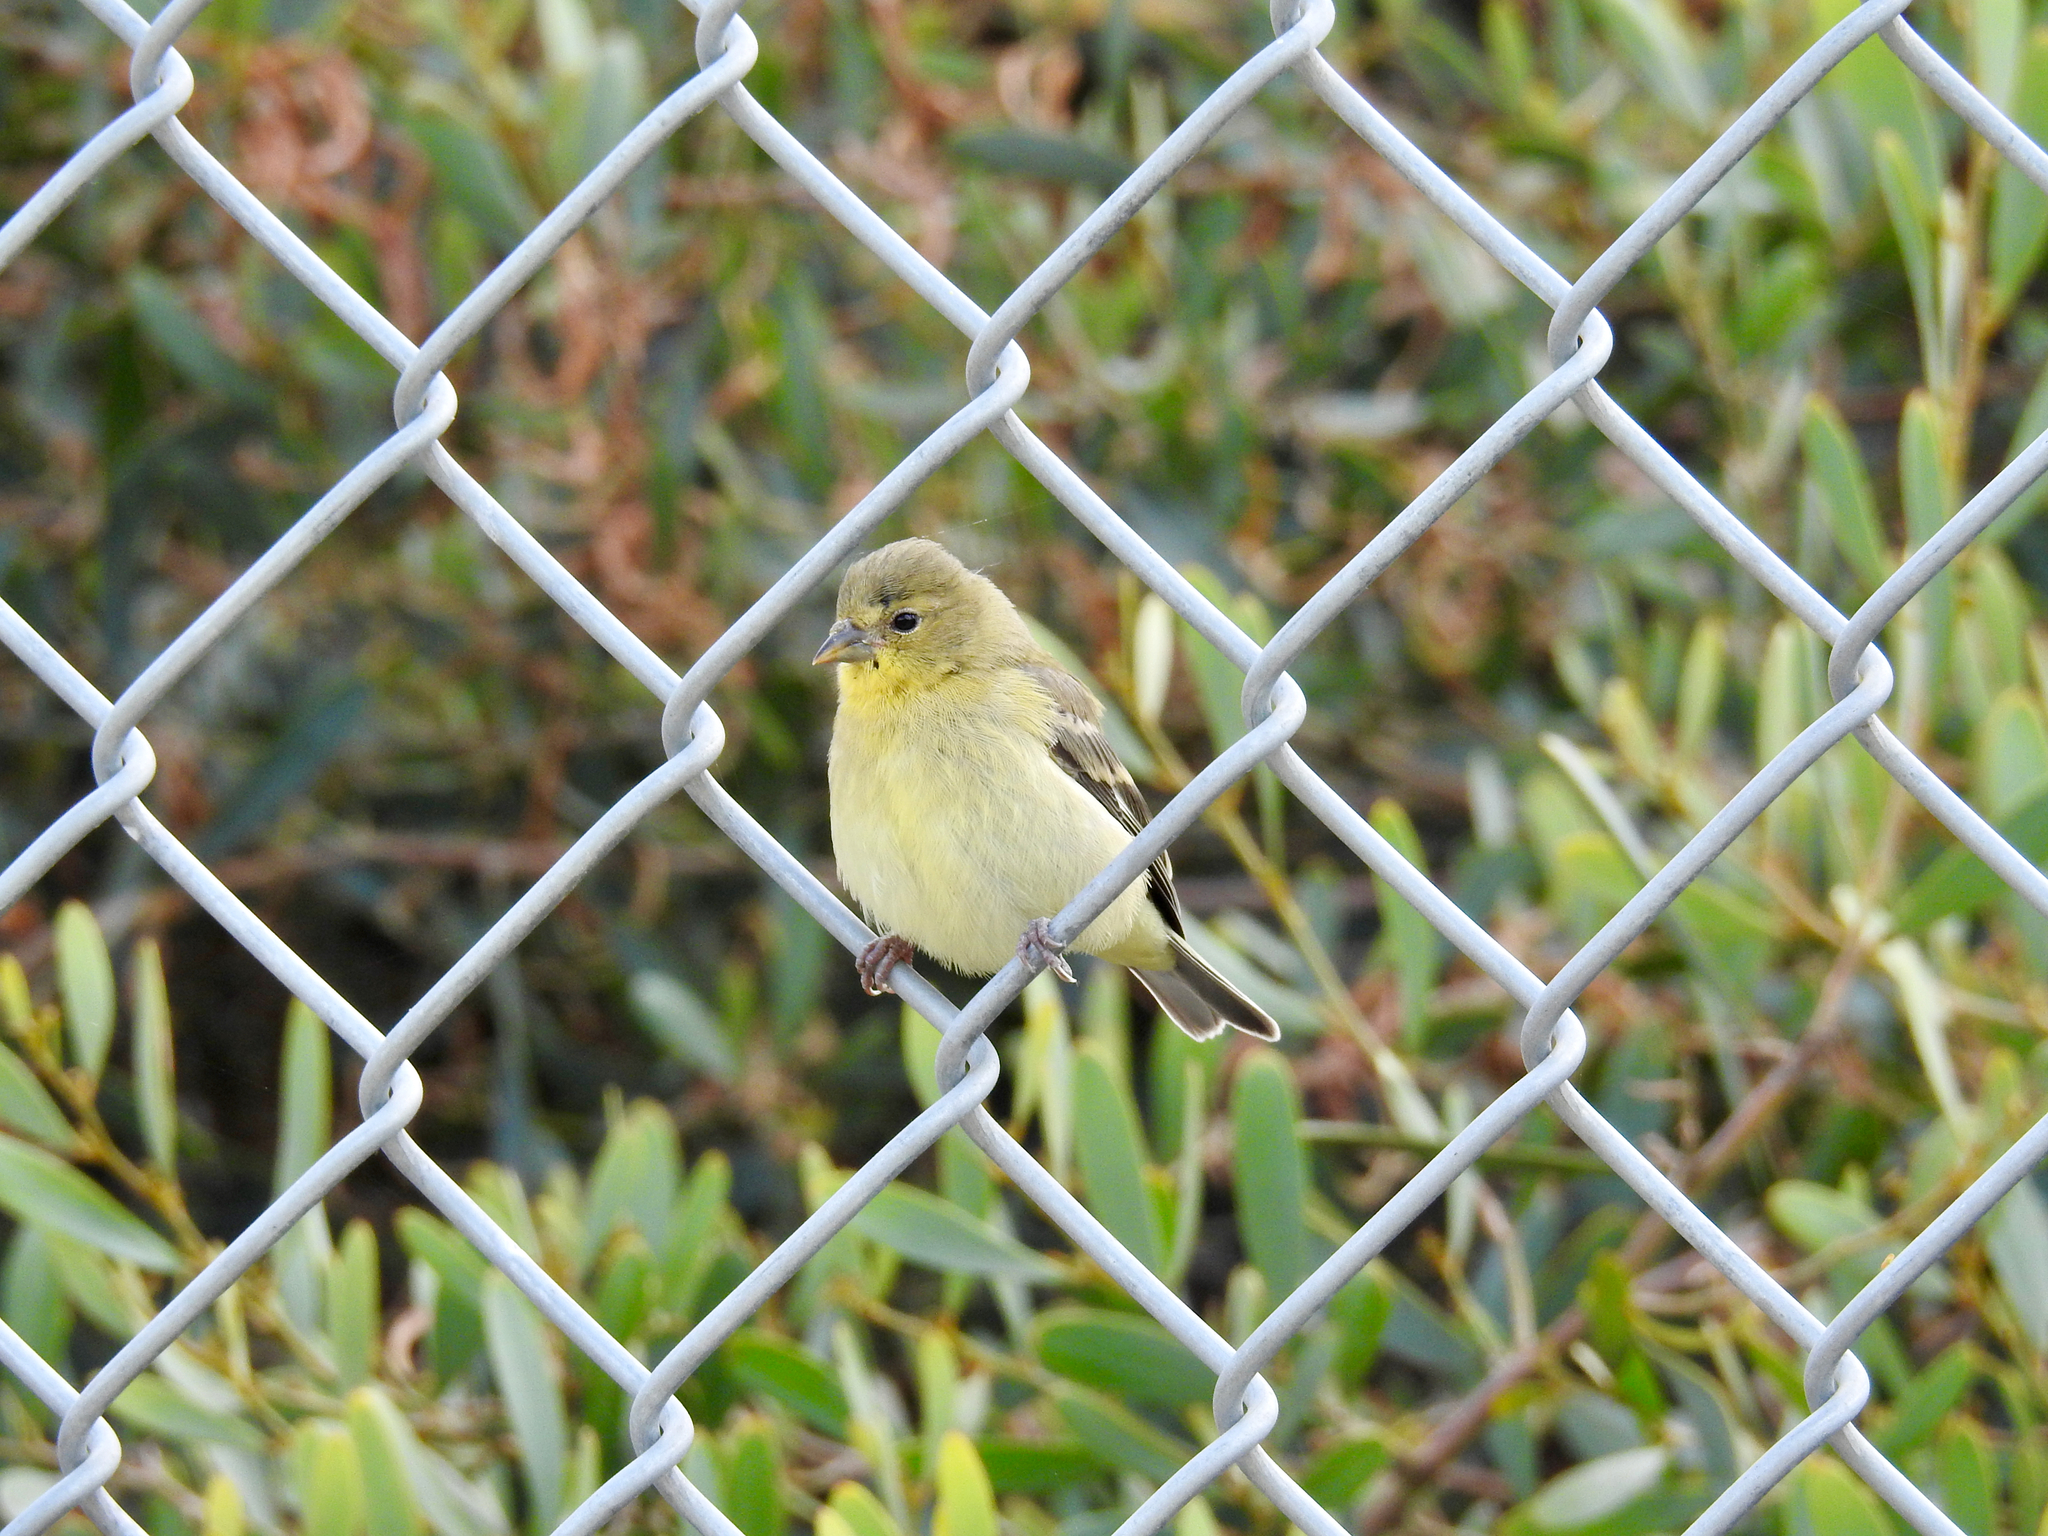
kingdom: Animalia
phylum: Chordata
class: Aves
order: Passeriformes
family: Fringillidae
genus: Spinus
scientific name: Spinus psaltria
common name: Lesser goldfinch
